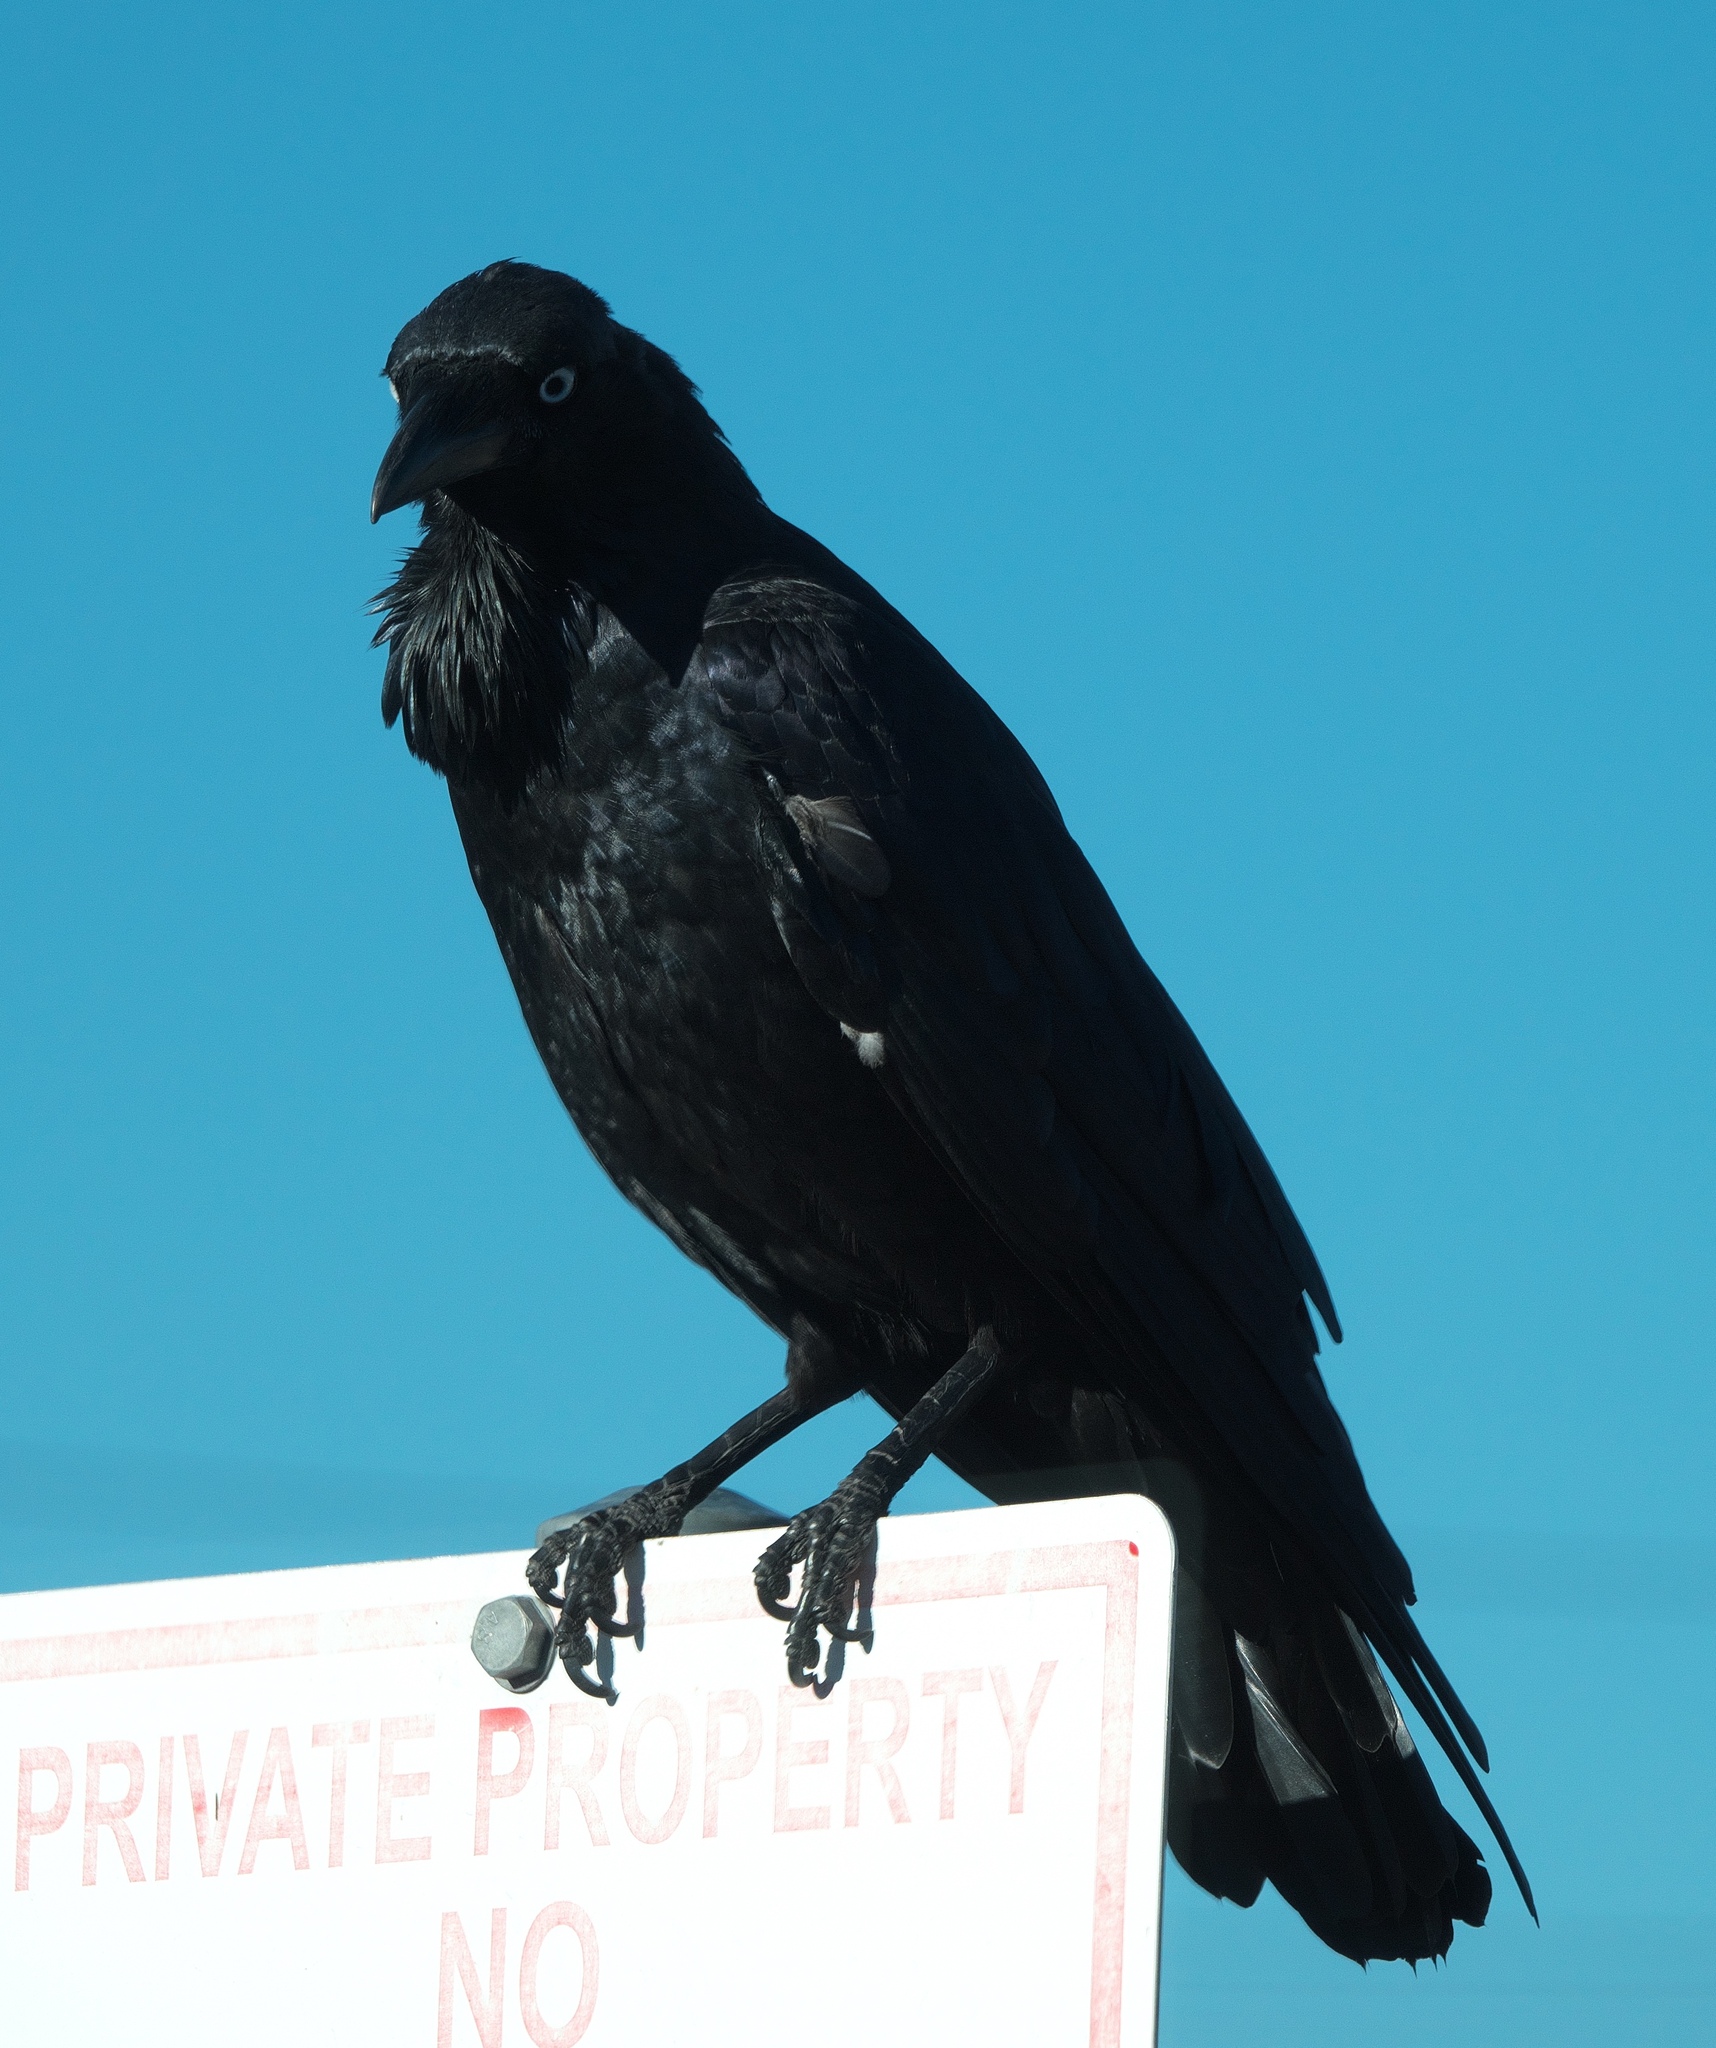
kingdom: Animalia
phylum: Chordata
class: Aves
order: Passeriformes
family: Corvidae
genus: Corvus
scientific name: Corvus coronoides
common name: Australian raven
